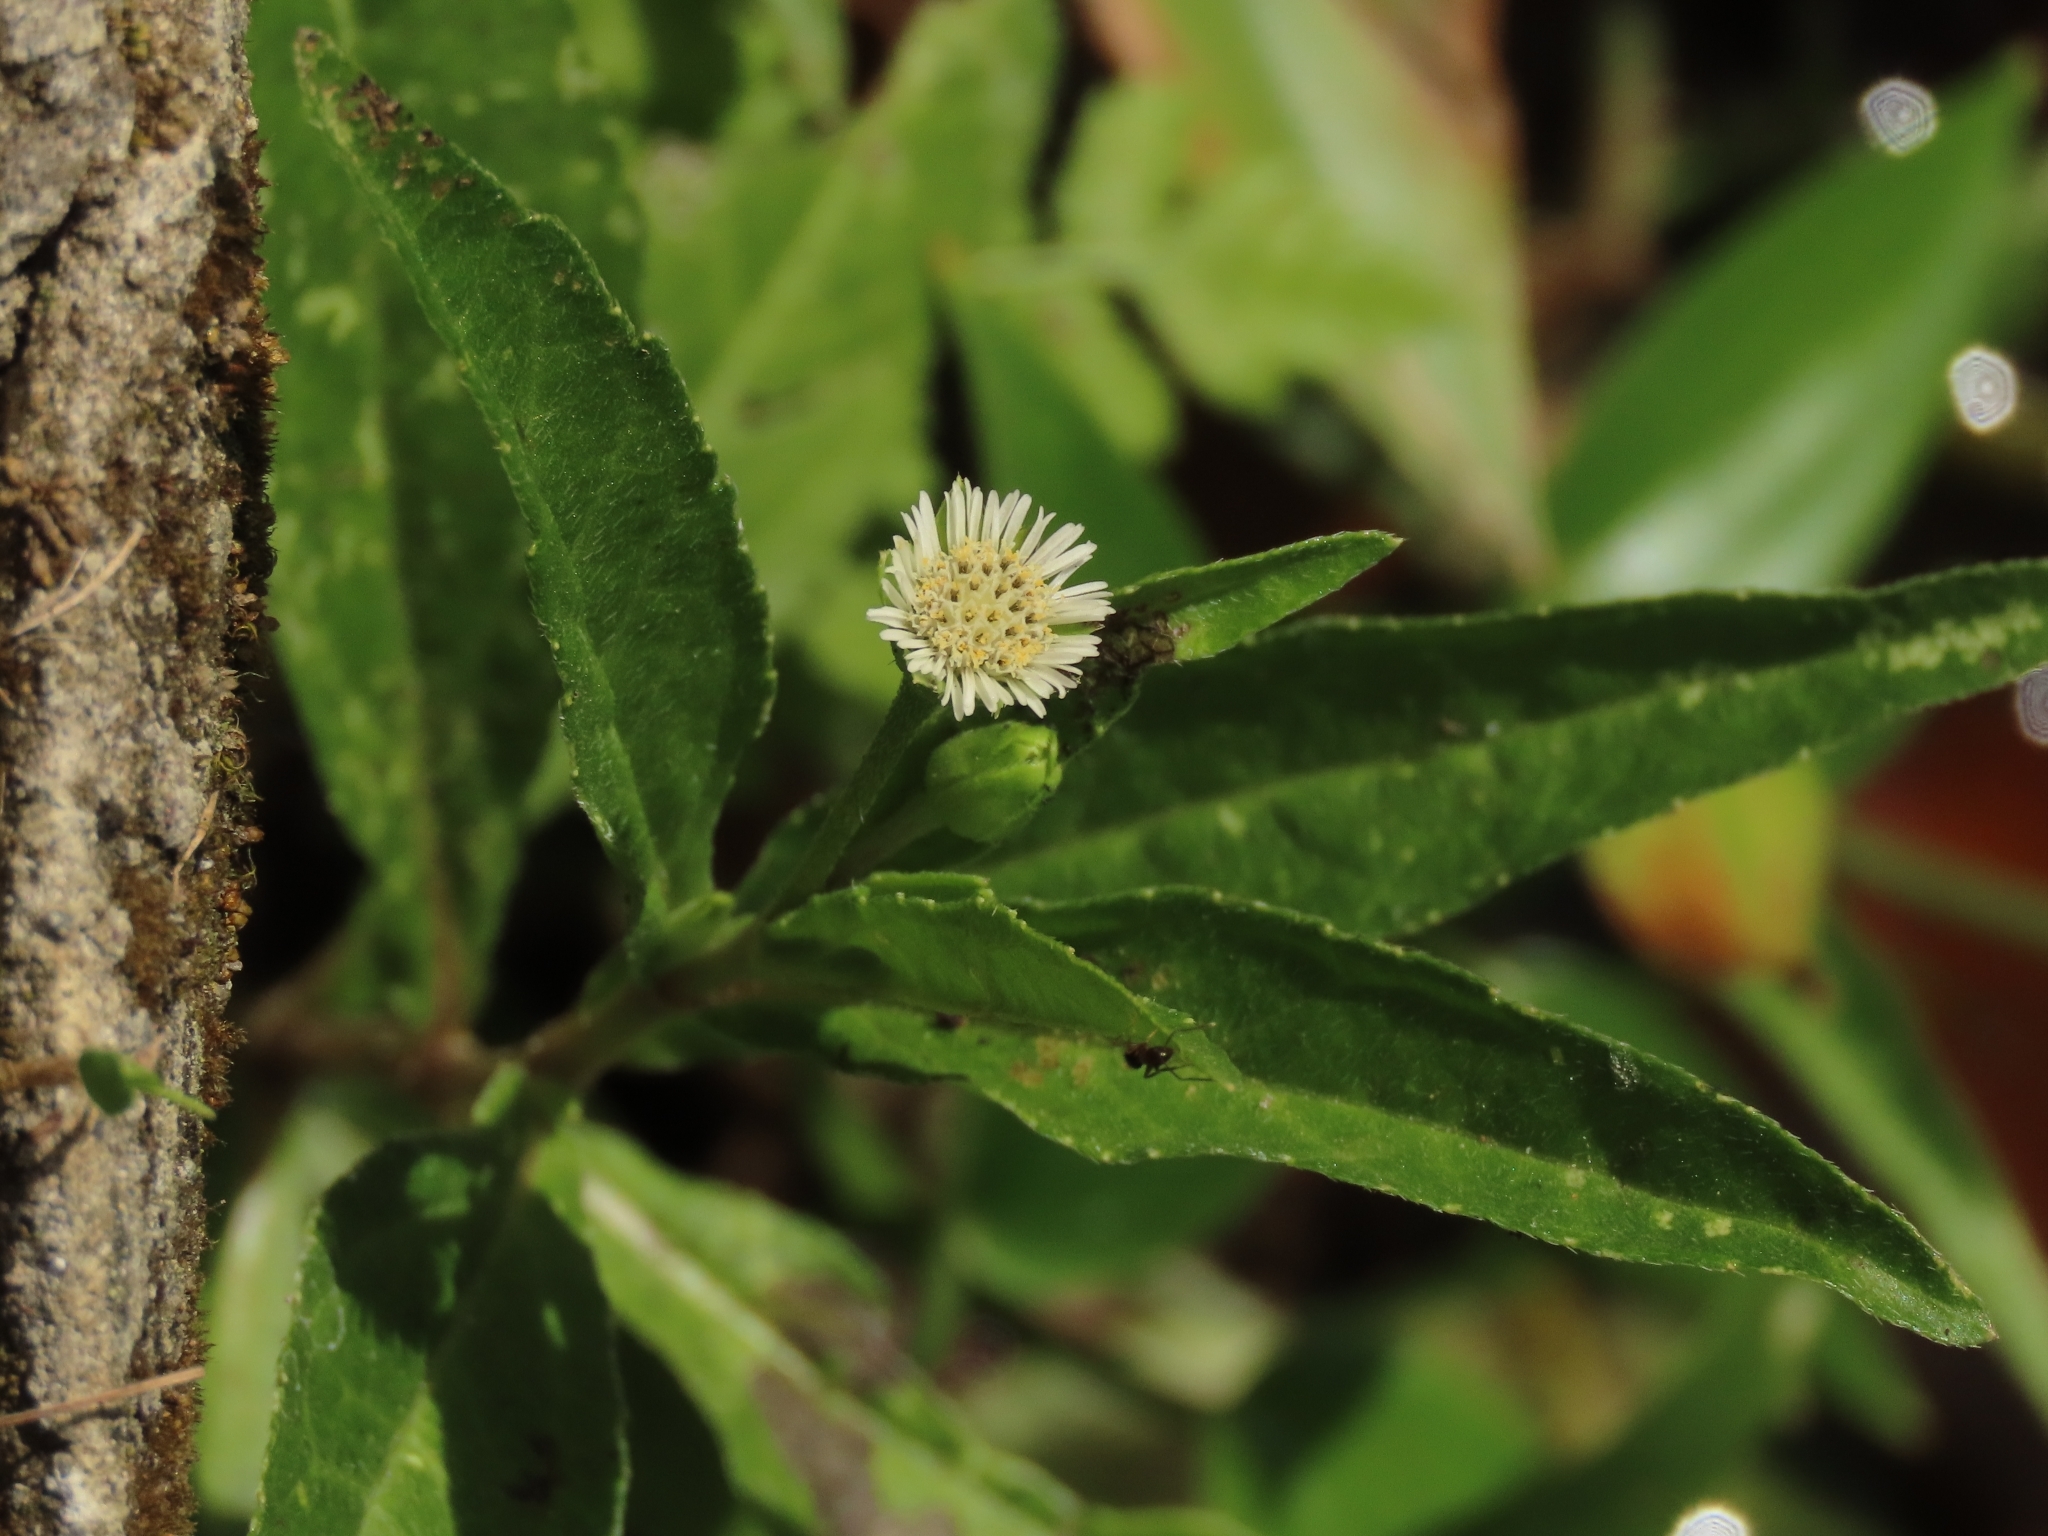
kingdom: Plantae
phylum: Tracheophyta
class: Magnoliopsida
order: Asterales
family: Asteraceae
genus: Eclipta
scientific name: Eclipta prostrata
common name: False daisy
